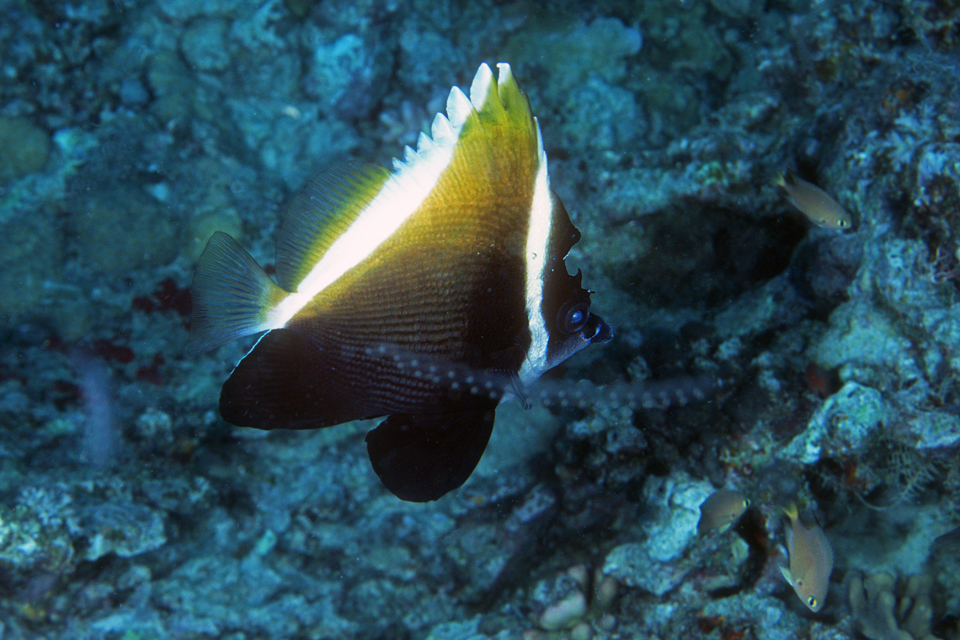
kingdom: Animalia
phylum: Chordata
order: Perciformes
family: Chaetodontidae
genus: Heniochus
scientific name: Heniochus varius
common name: Horned bannerfish
